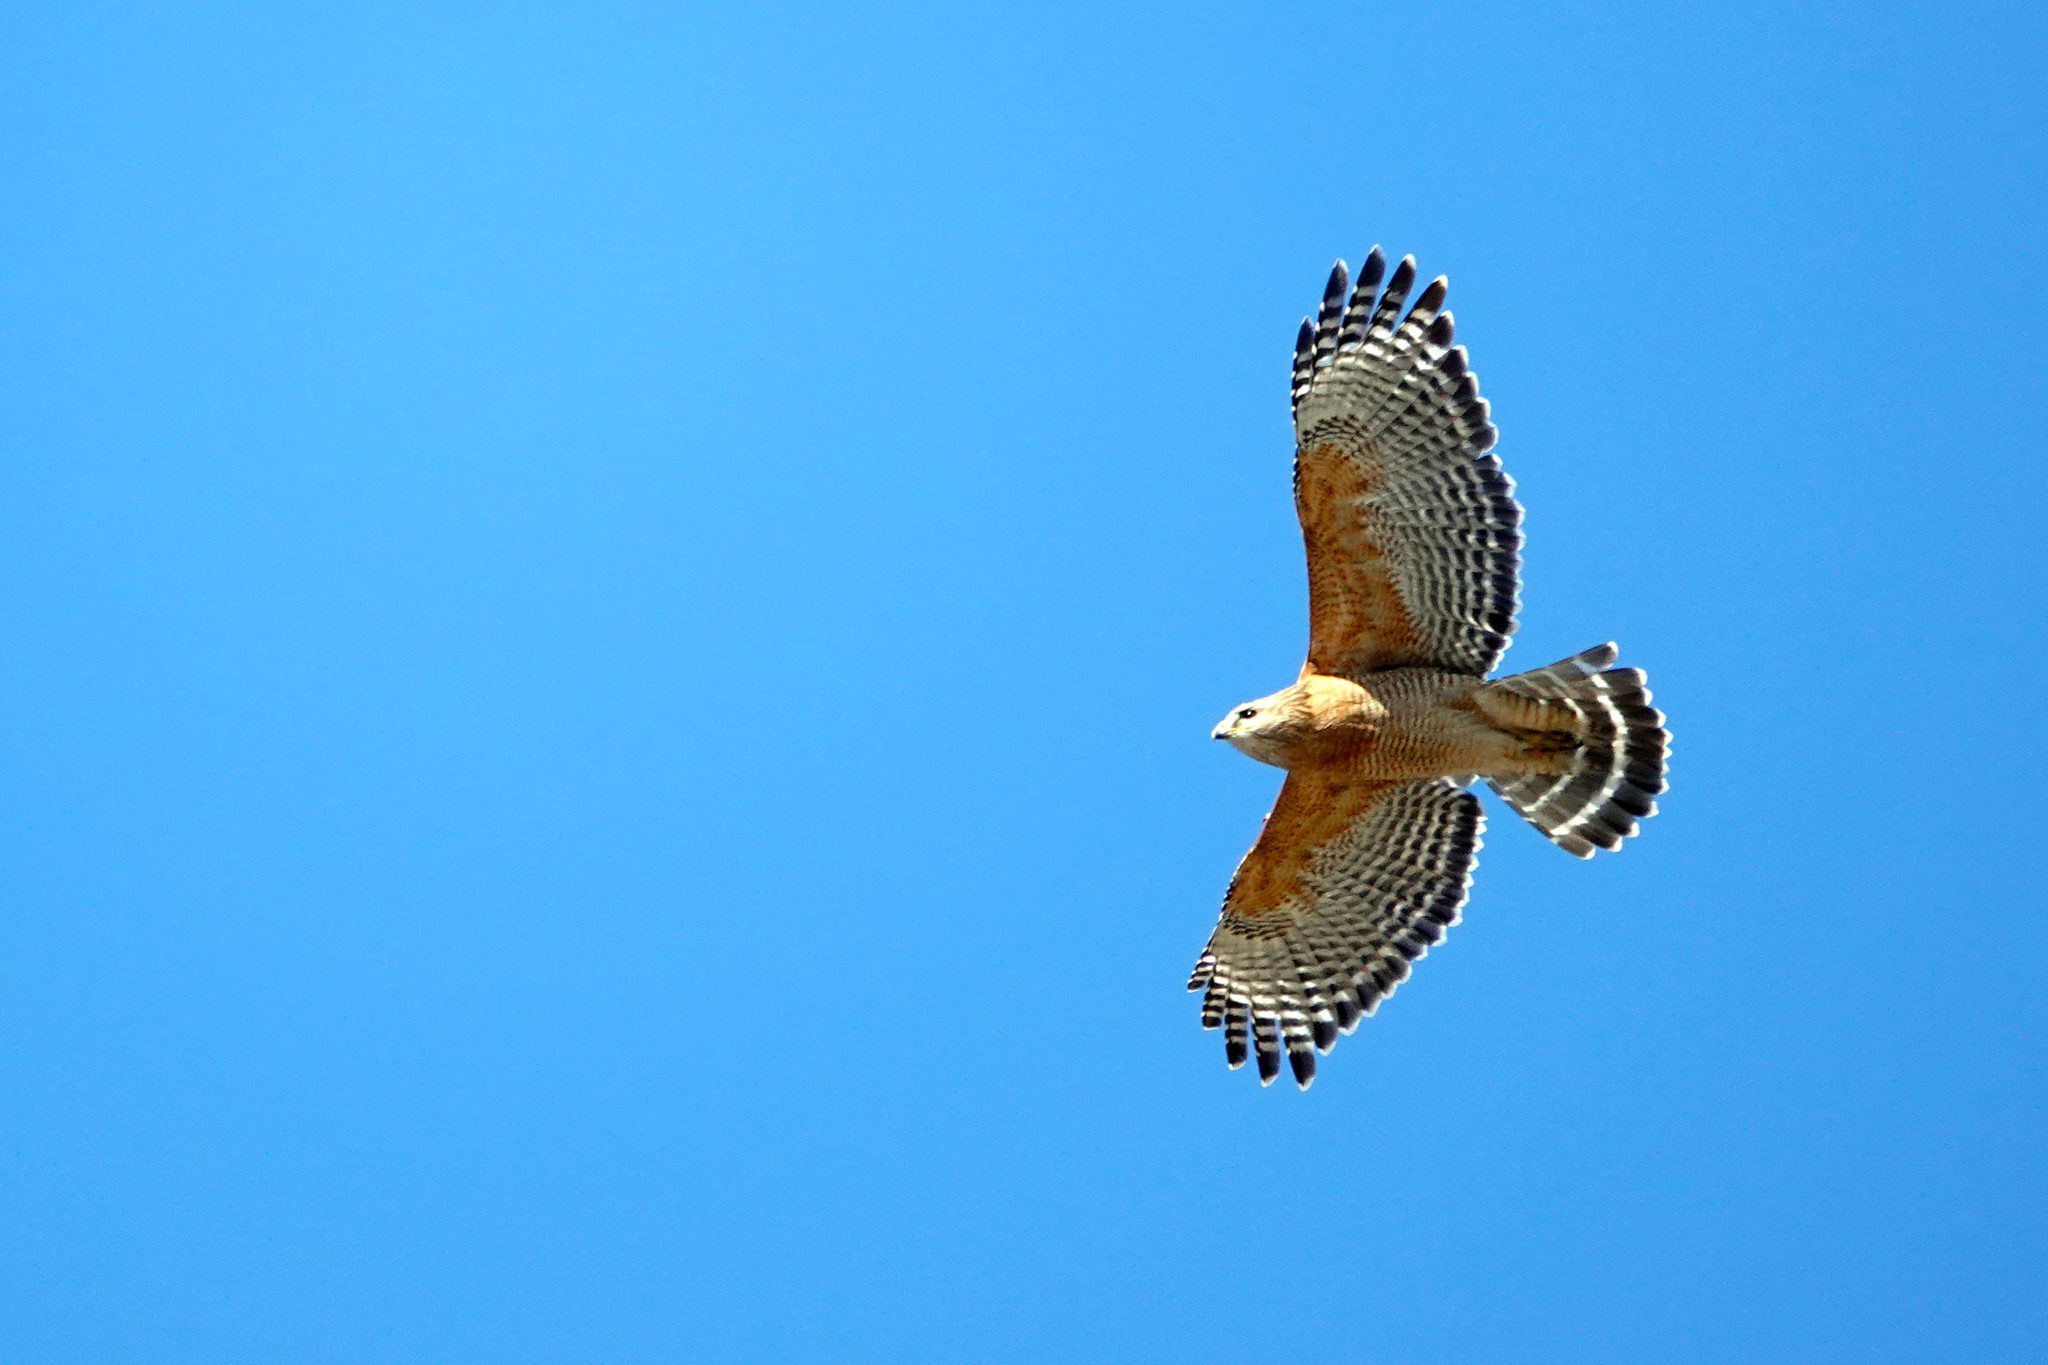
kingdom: Animalia
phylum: Chordata
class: Aves
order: Accipitriformes
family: Accipitridae
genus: Buteo
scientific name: Buteo lineatus
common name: Red-shouldered hawk
